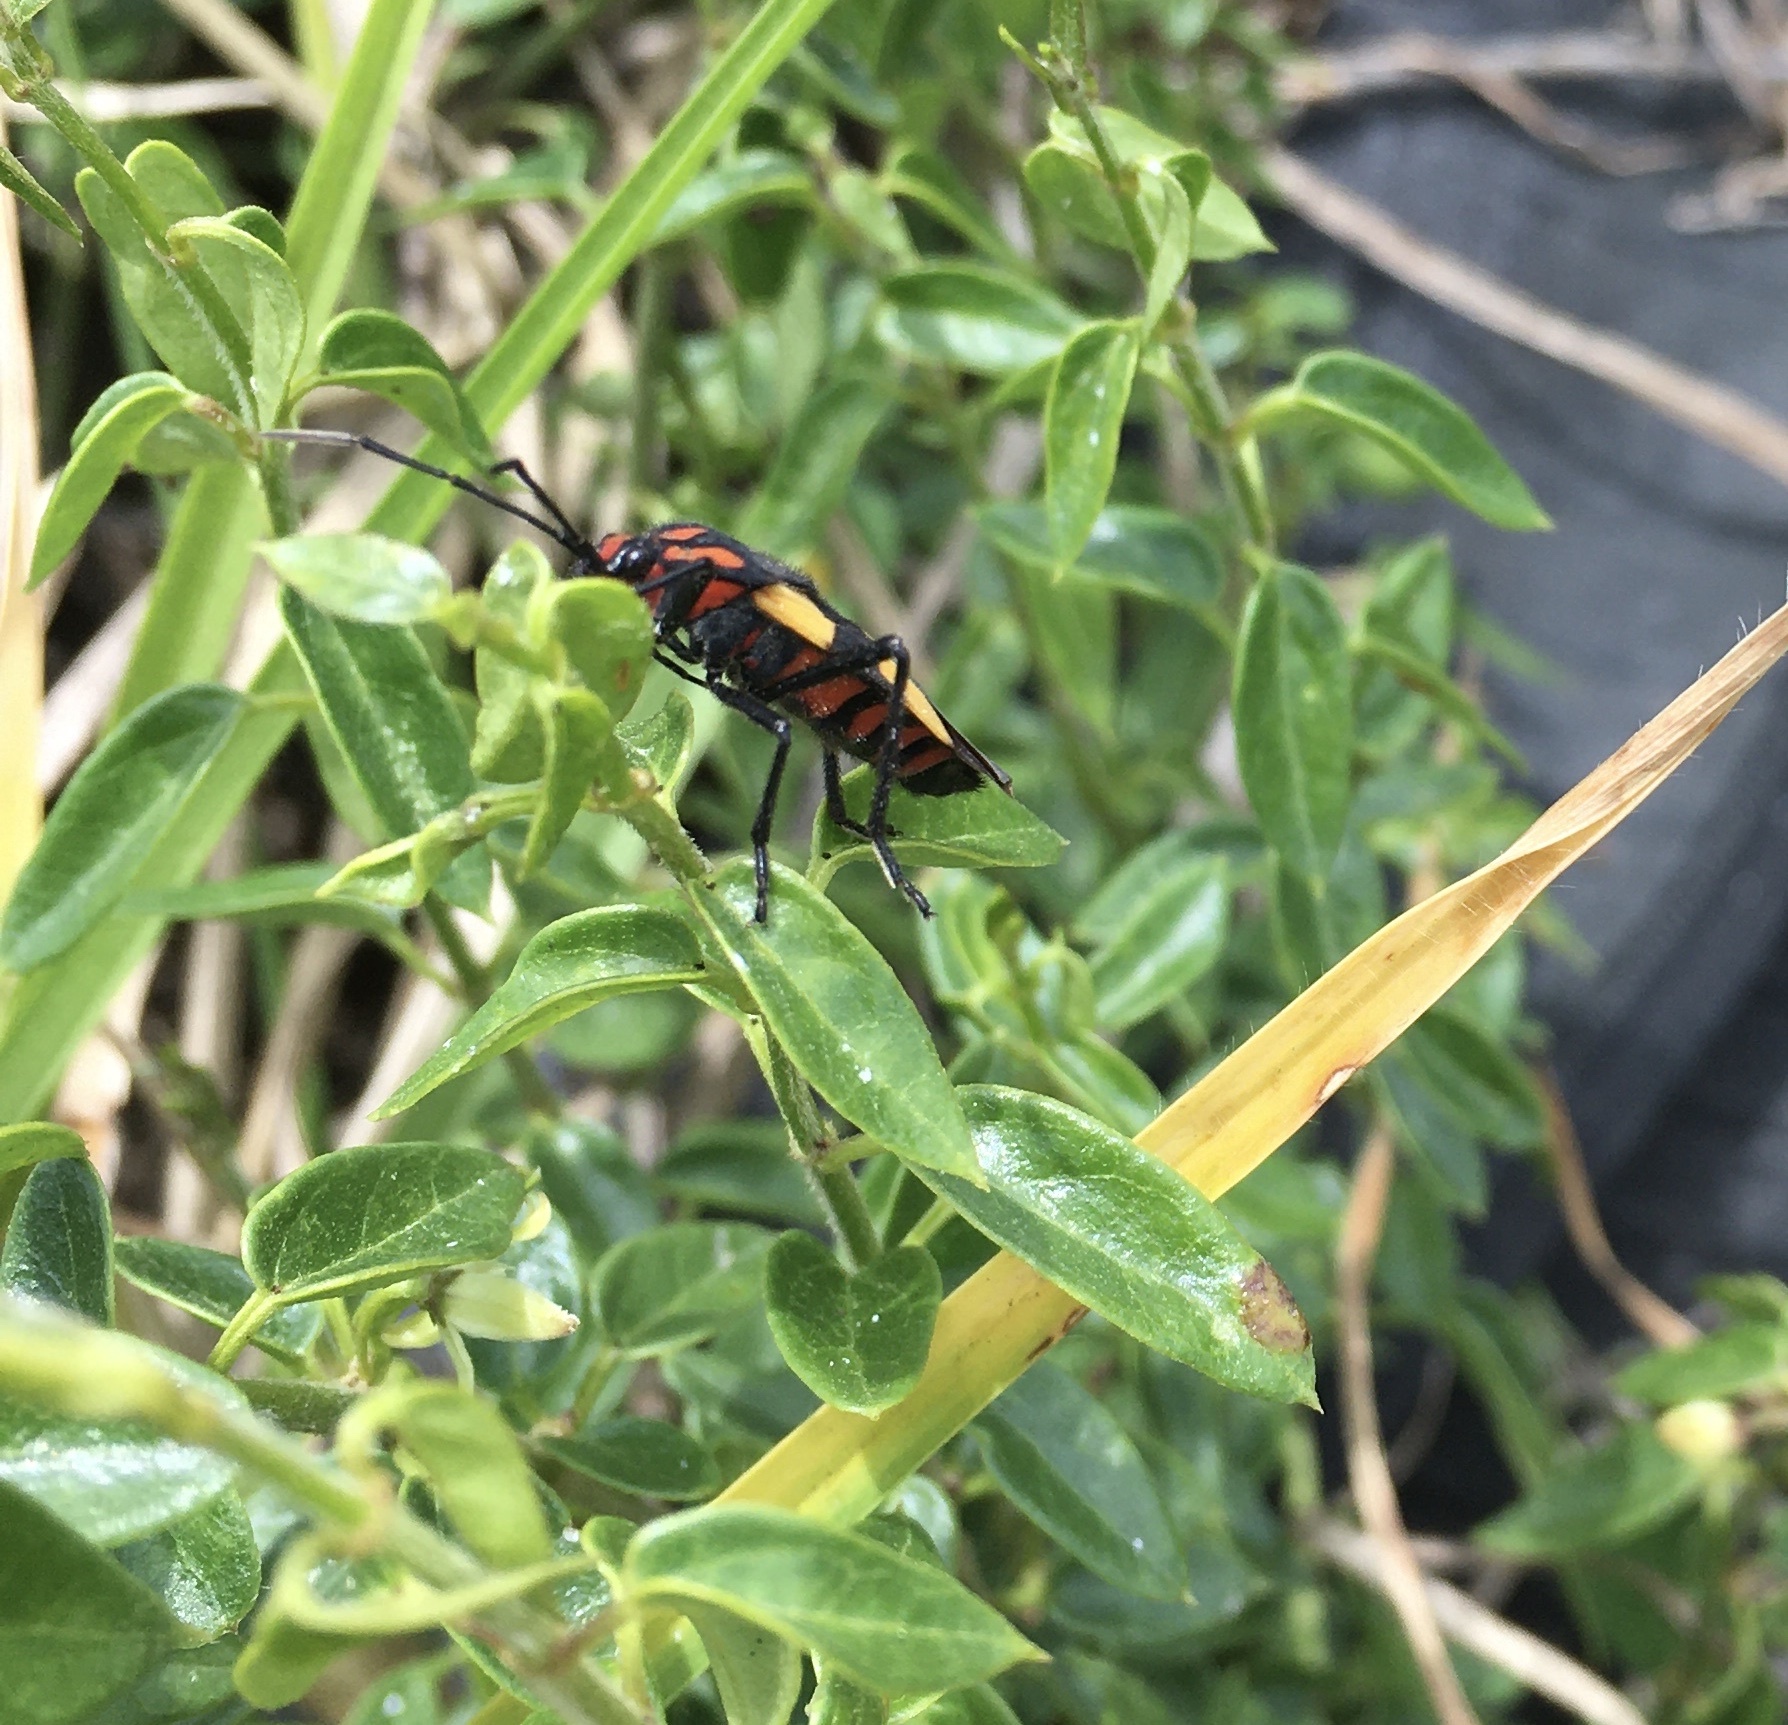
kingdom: Animalia
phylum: Arthropoda
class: Insecta
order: Hemiptera
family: Lygaeidae
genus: Oncopeltus
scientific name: Oncopeltus varicolor
